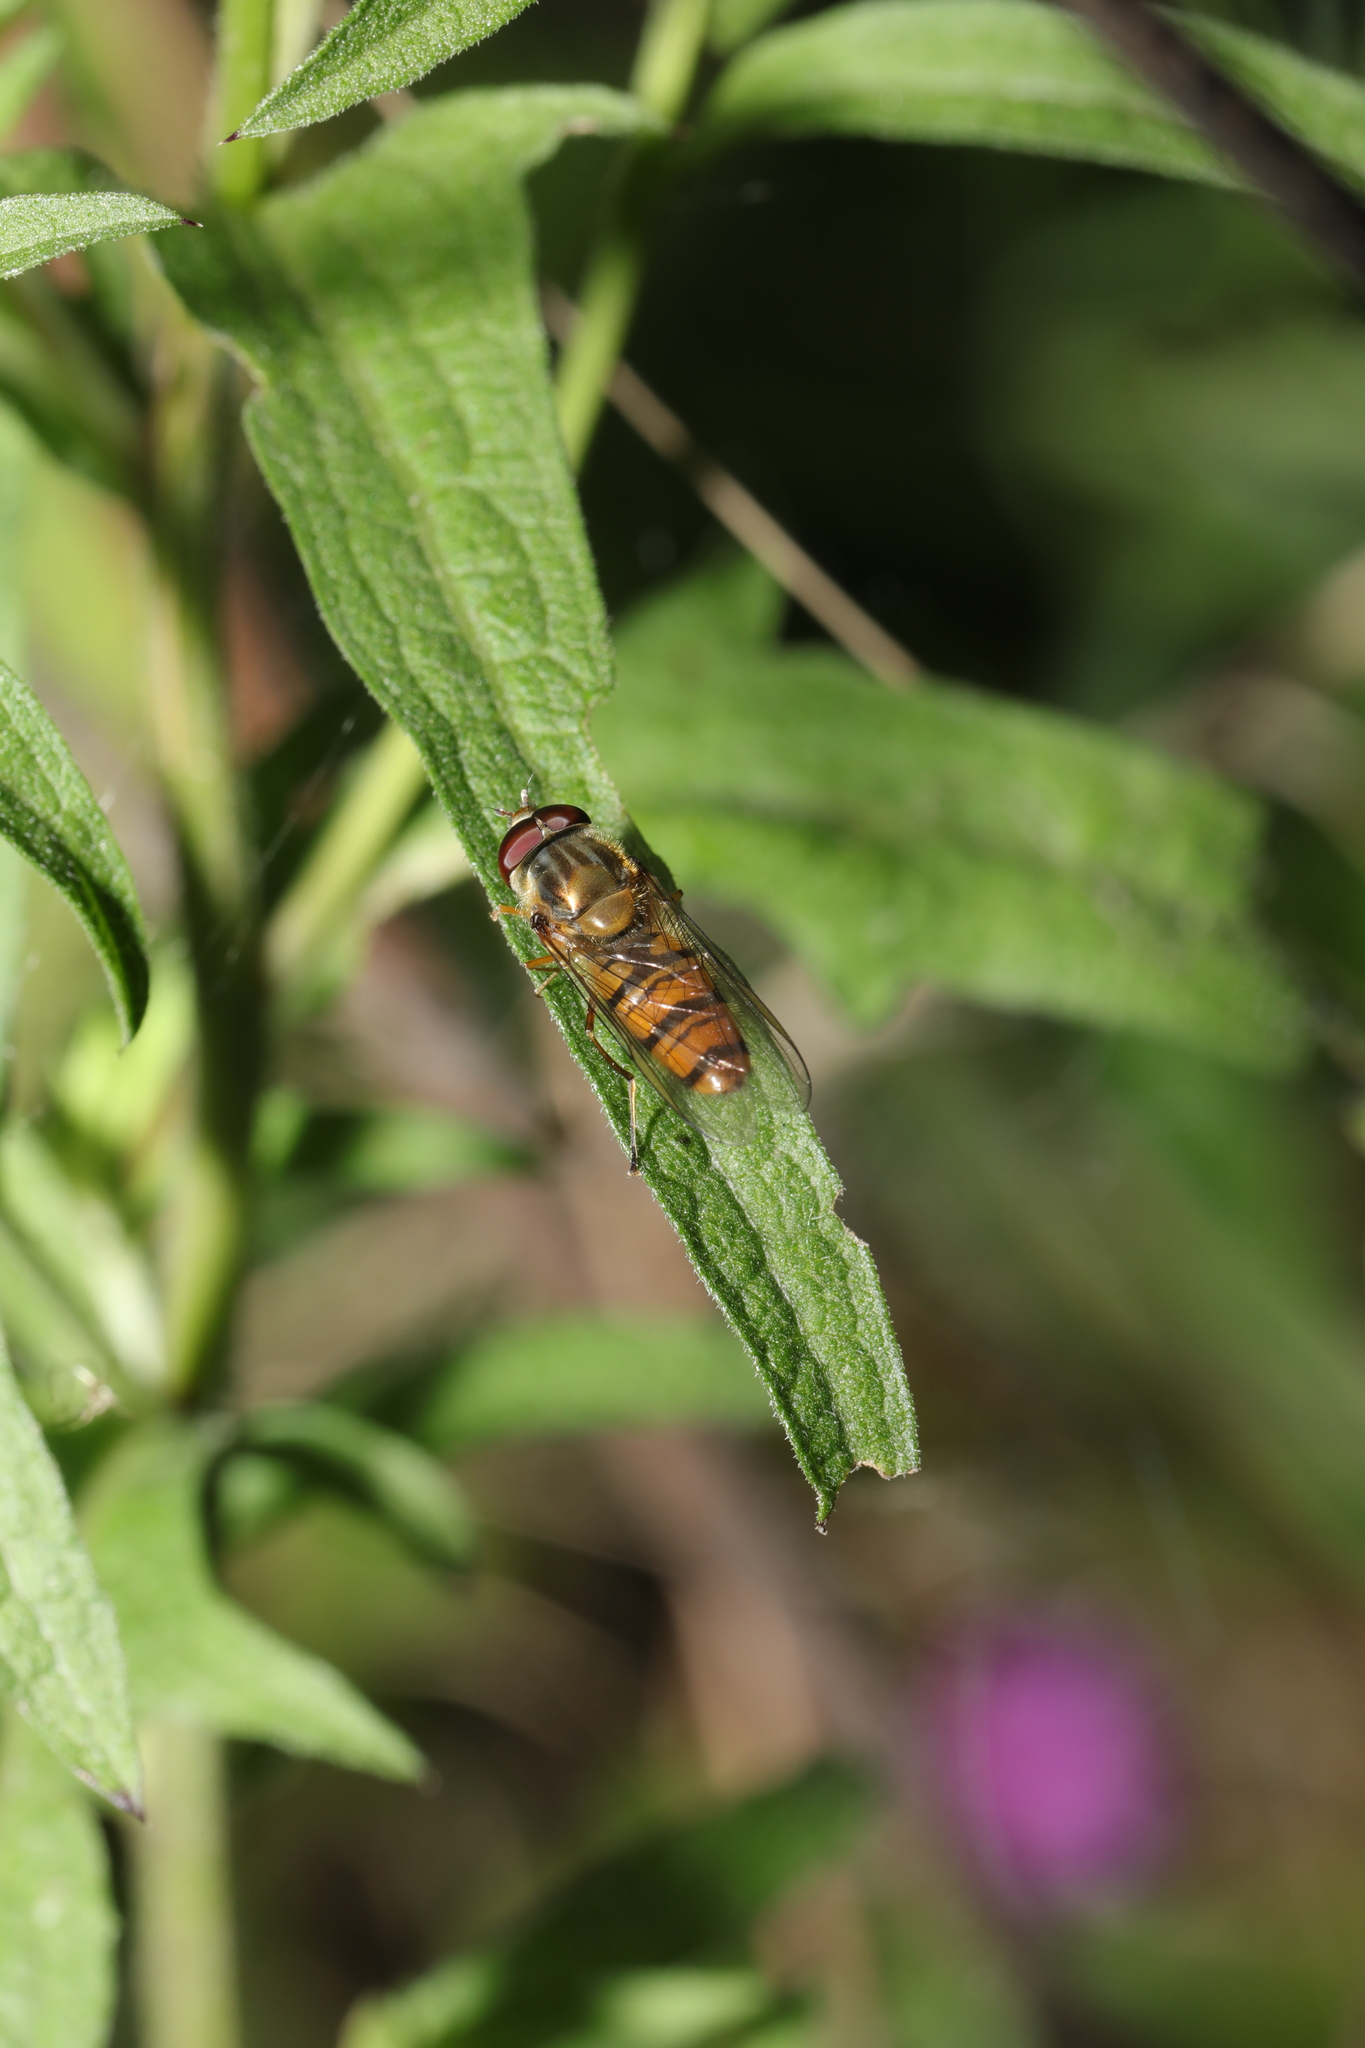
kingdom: Animalia
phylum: Arthropoda
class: Insecta
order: Diptera
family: Syrphidae
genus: Episyrphus
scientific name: Episyrphus balteatus
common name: Marmalade hoverfly
